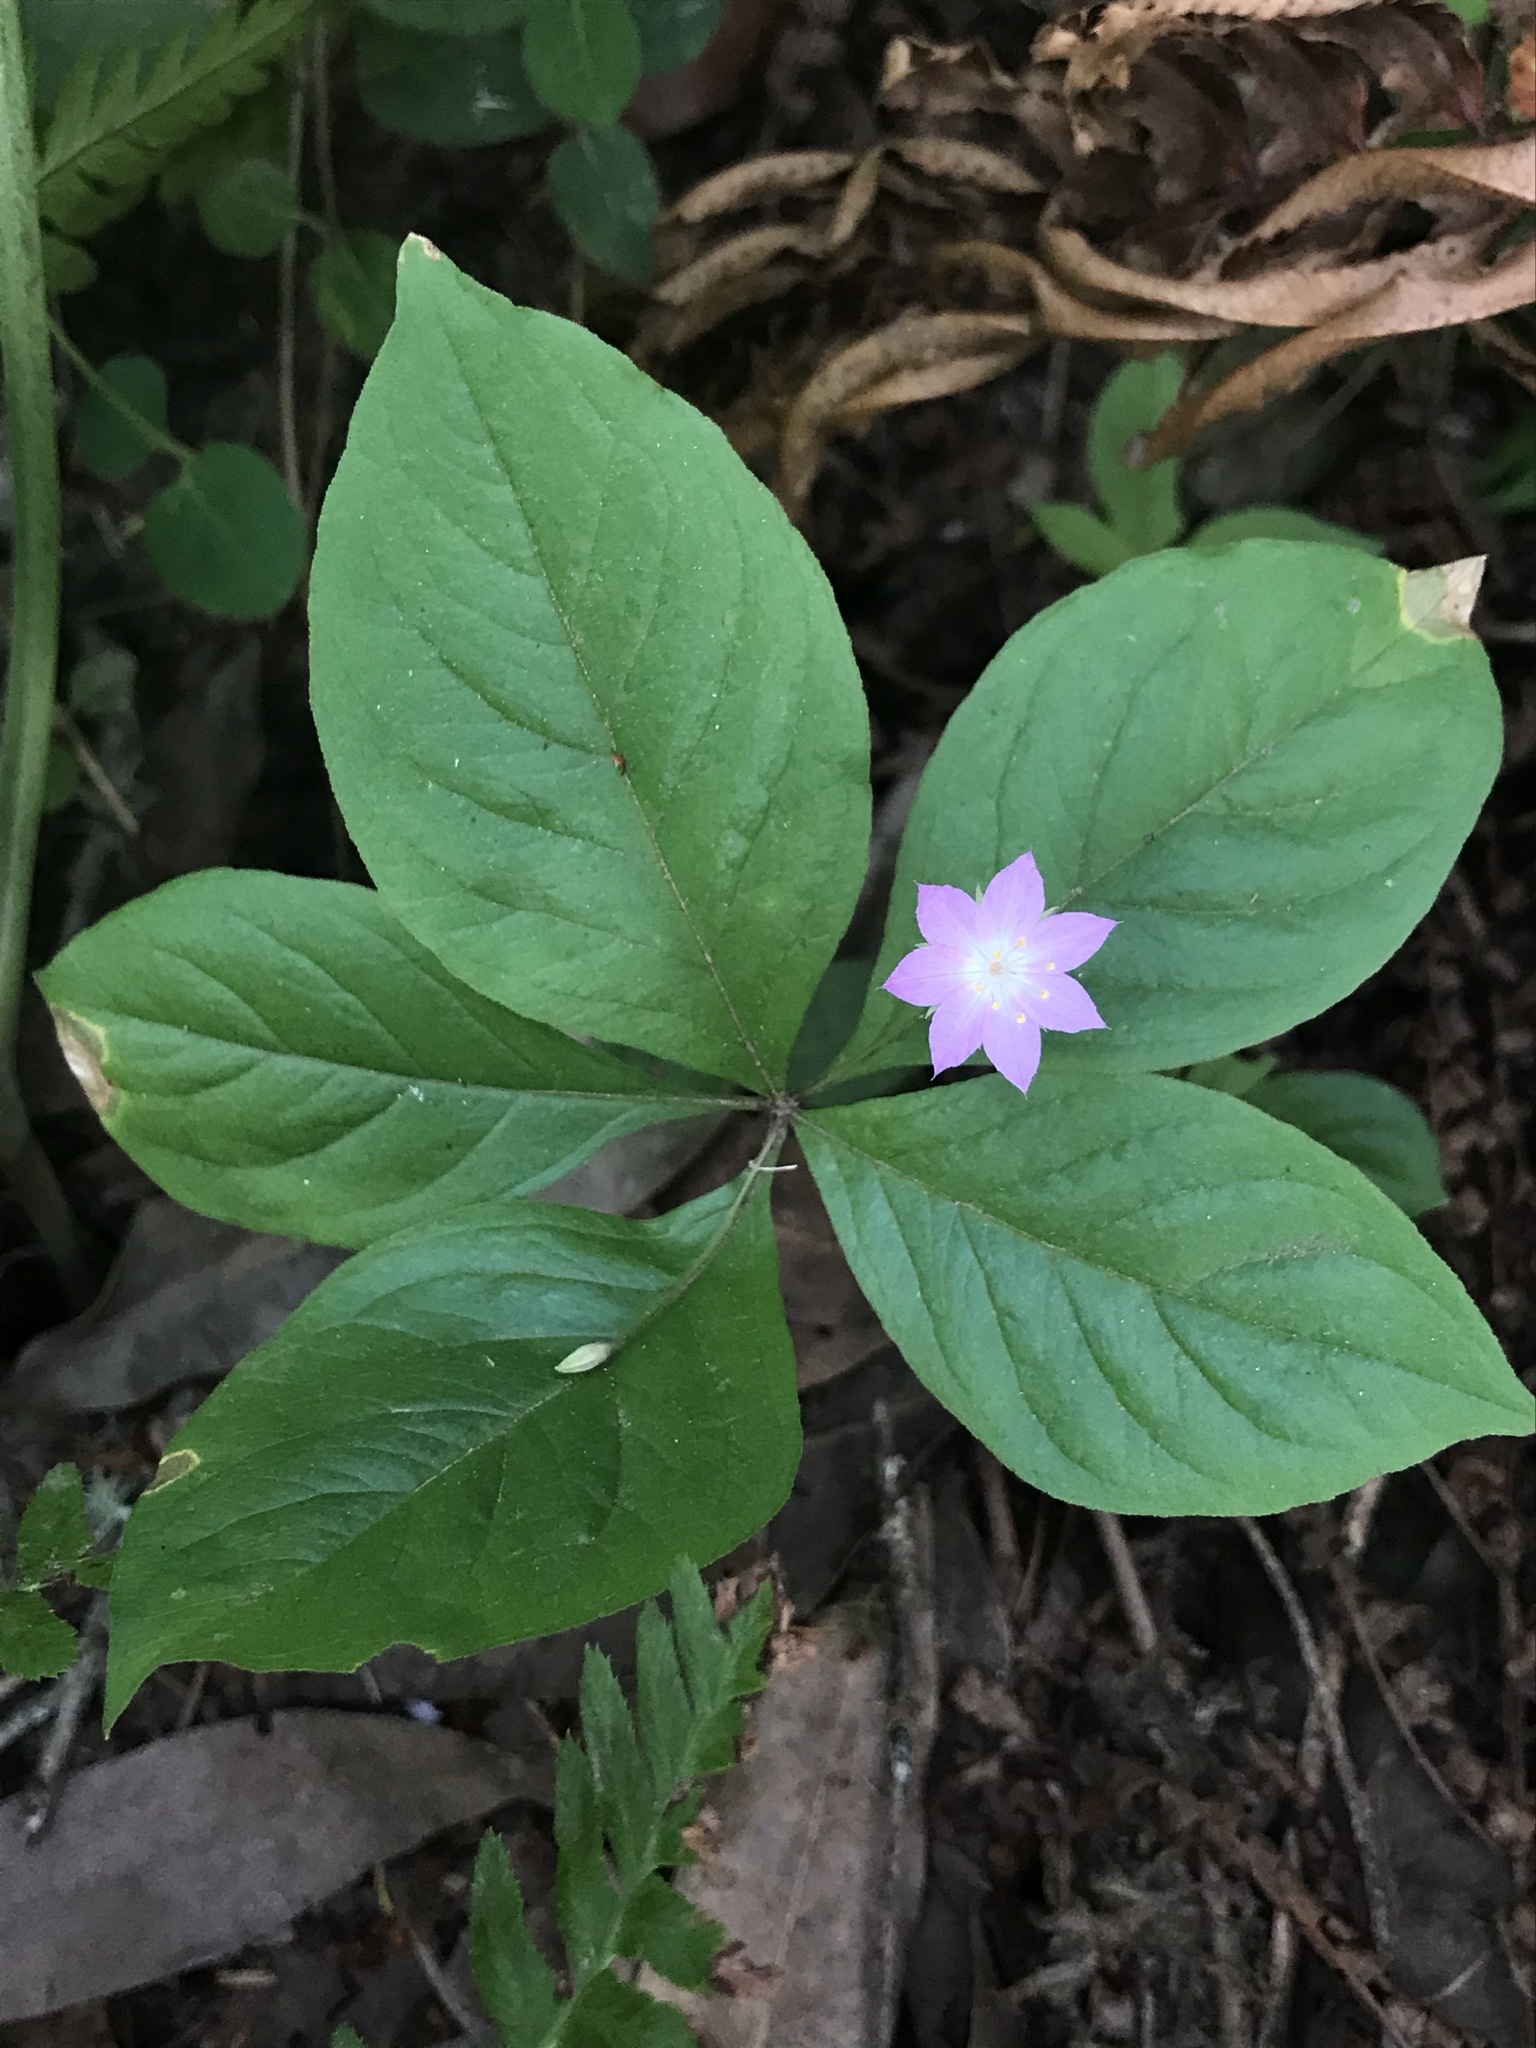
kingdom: Plantae
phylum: Tracheophyta
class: Magnoliopsida
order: Ericales
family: Primulaceae
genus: Lysimachia
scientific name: Lysimachia latifolia
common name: Pacific starflower
